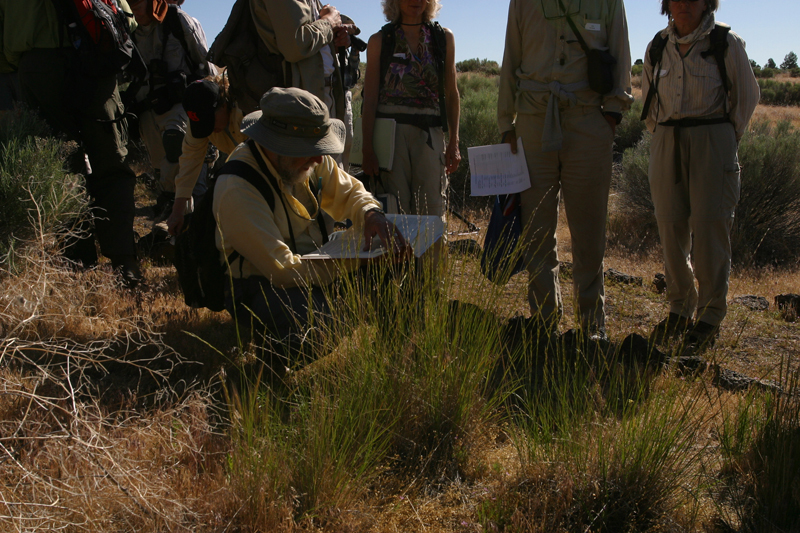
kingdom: Plantae
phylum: Tracheophyta
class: Liliopsida
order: Poales
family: Poaceae
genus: Pseudoroegneria
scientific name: Pseudoroegneria spicata
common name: Bluebunch wheatgrass
